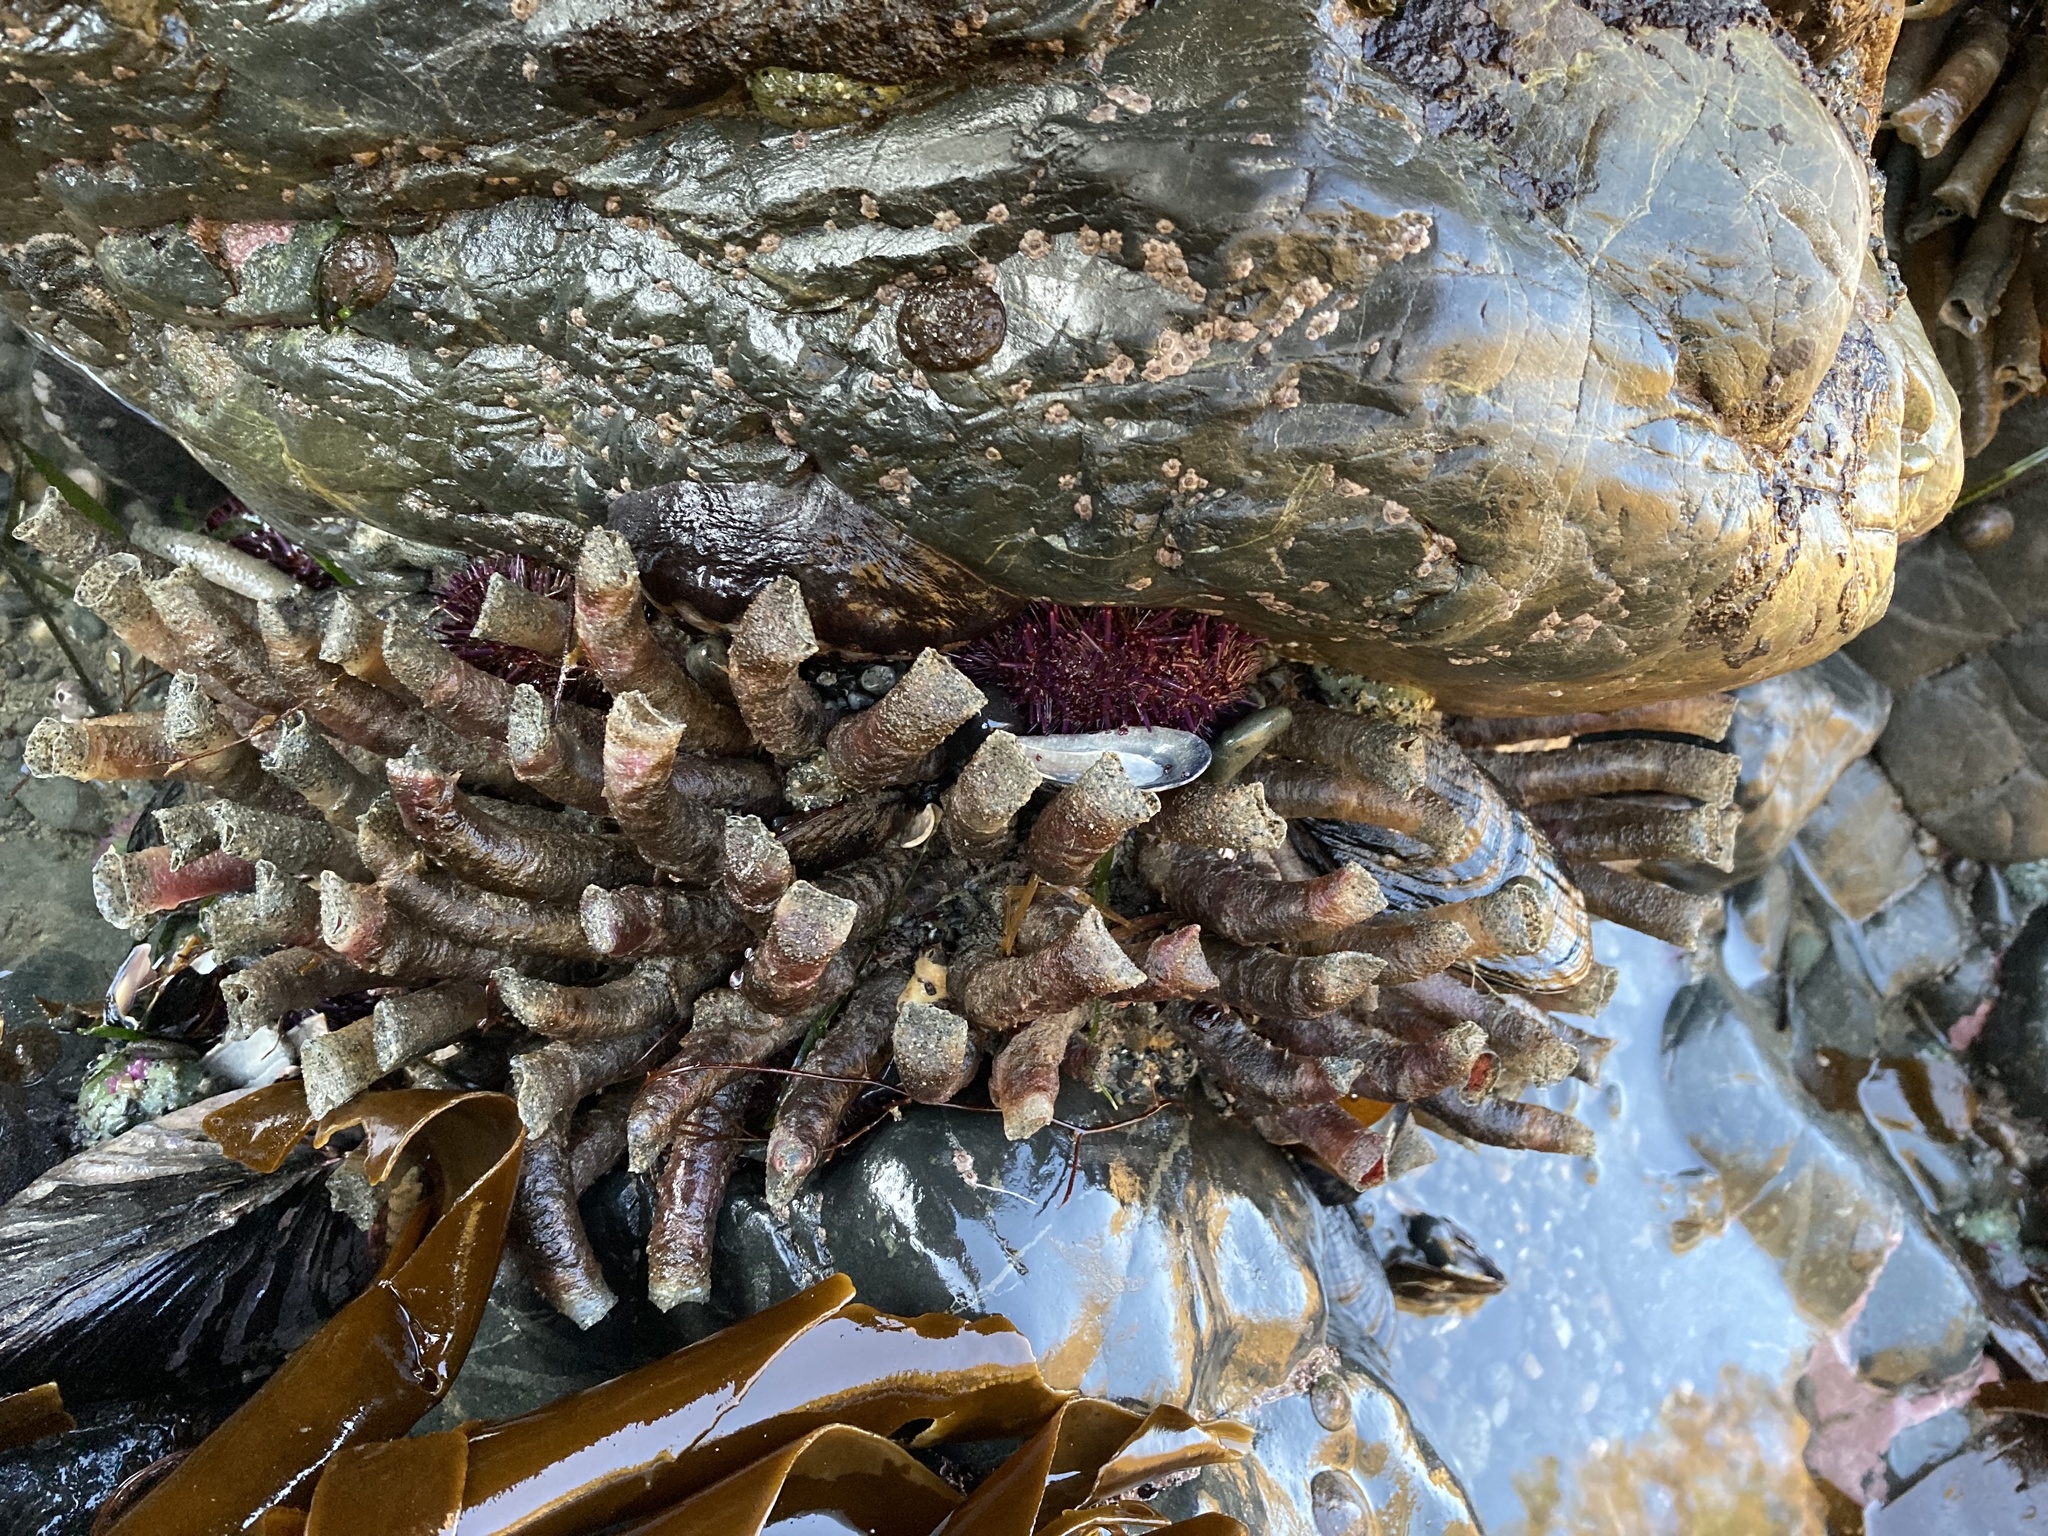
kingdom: Animalia
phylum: Echinodermata
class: Echinoidea
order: Camarodonta
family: Strongylocentrotidae
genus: Strongylocentrotus
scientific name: Strongylocentrotus purpuratus
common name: Purple sea urchin
